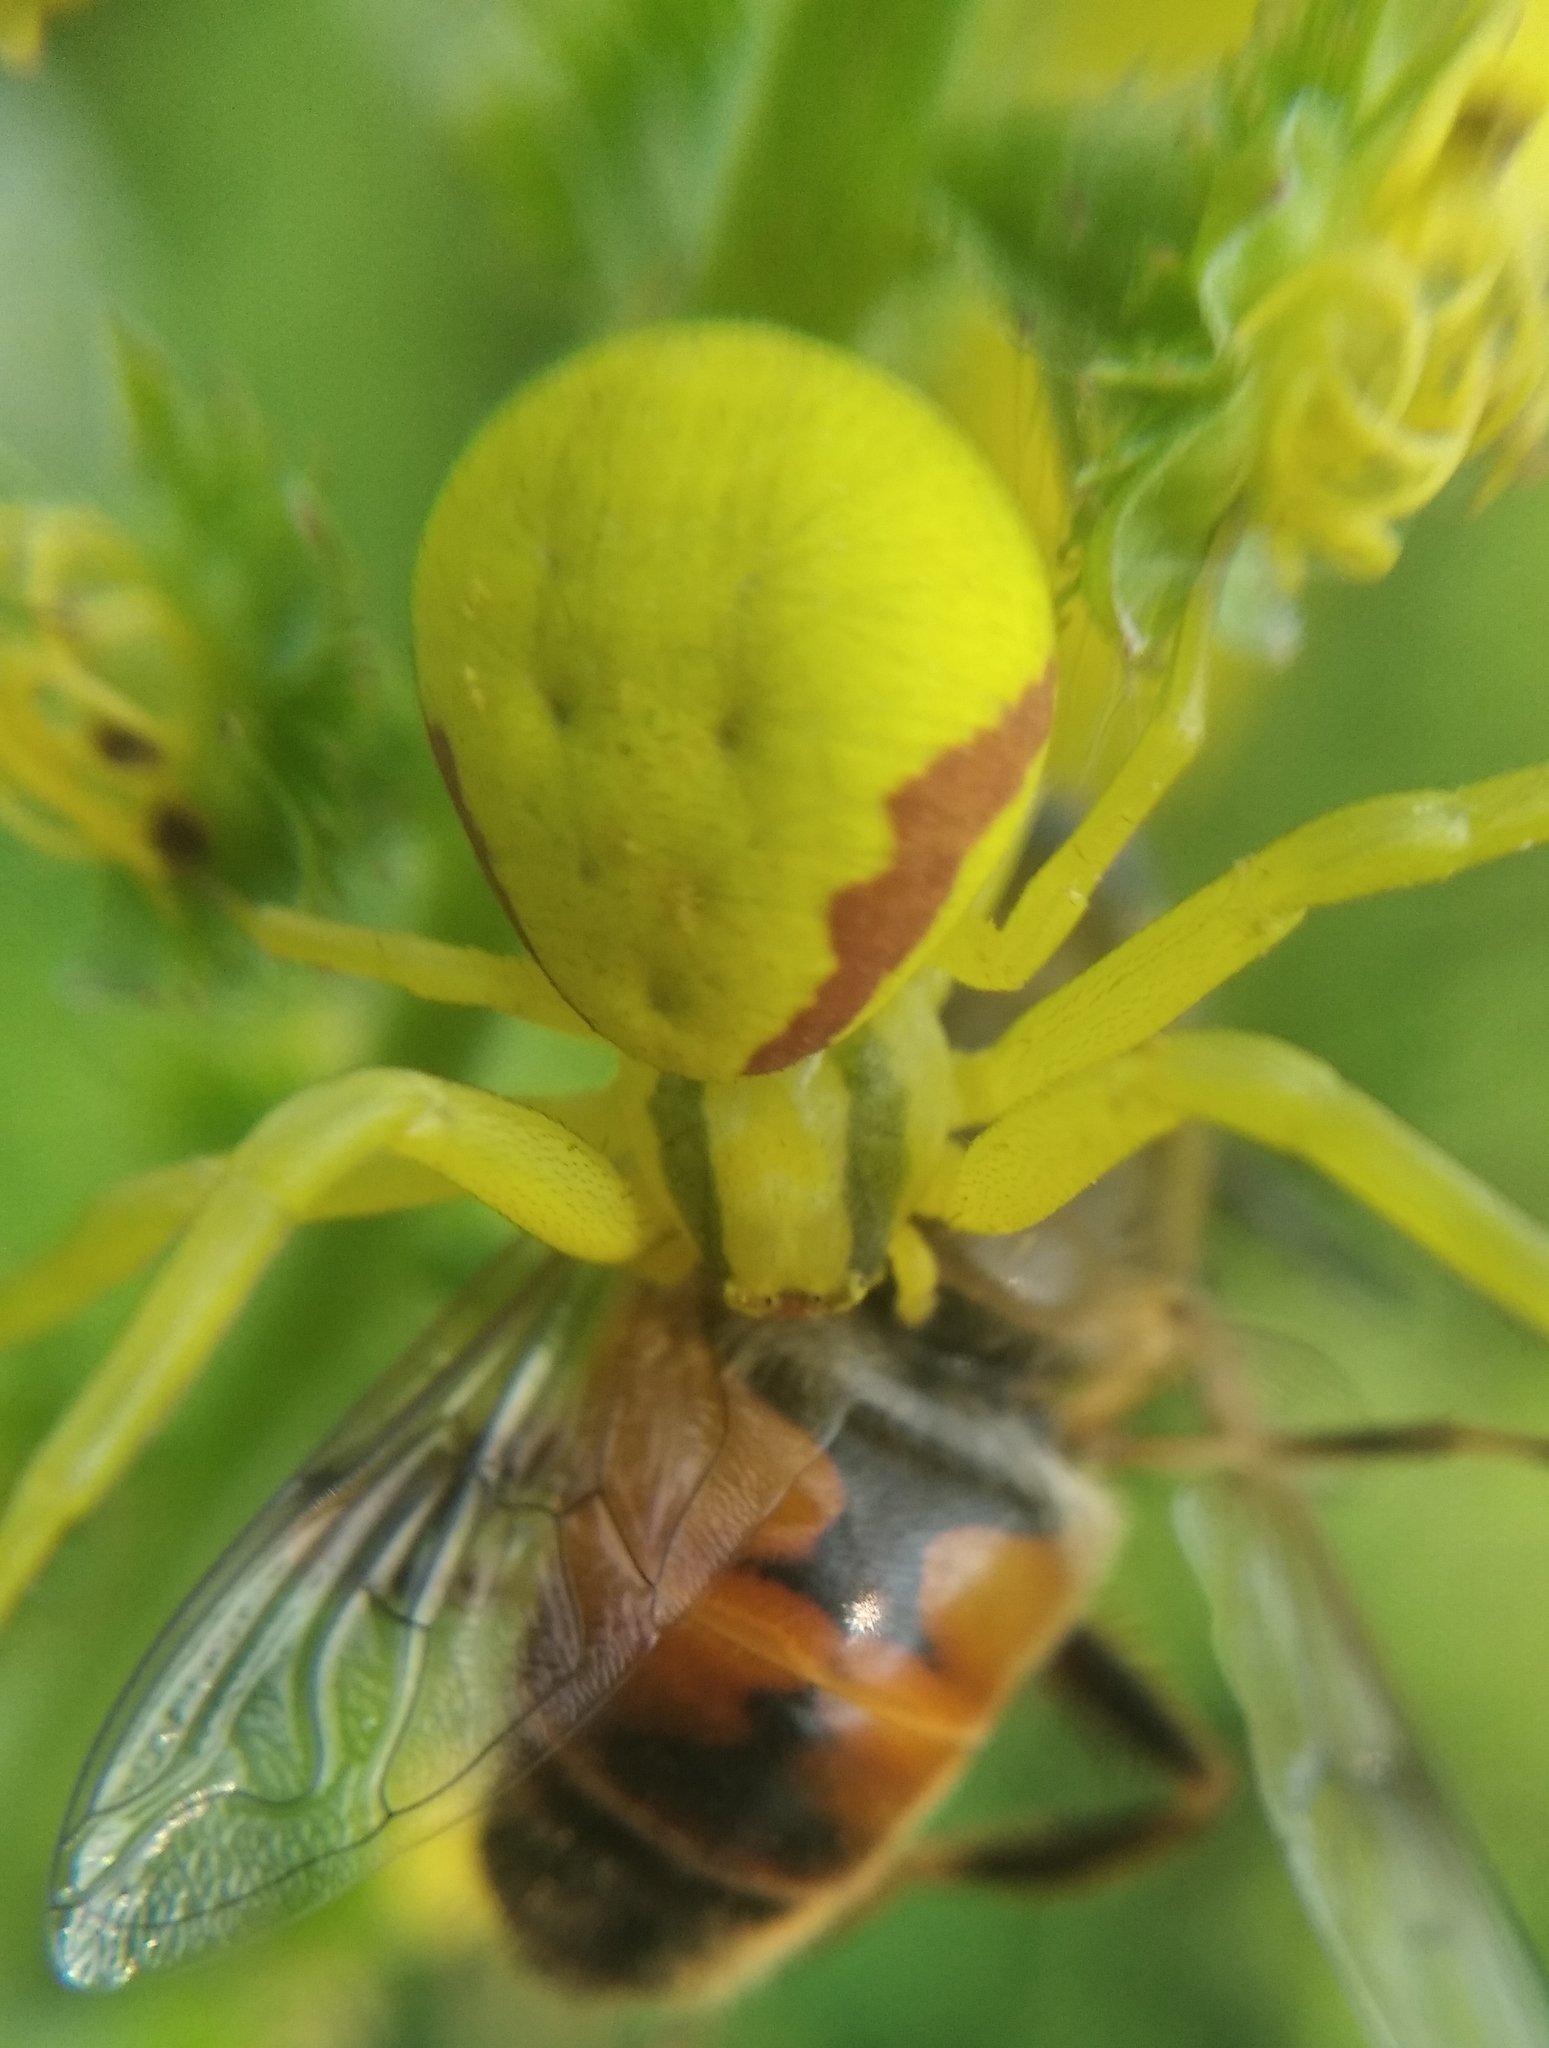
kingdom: Animalia
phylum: Arthropoda
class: Arachnida
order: Araneae
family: Thomisidae
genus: Misumena
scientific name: Misumena vatia
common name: Goldenrod crab spider
